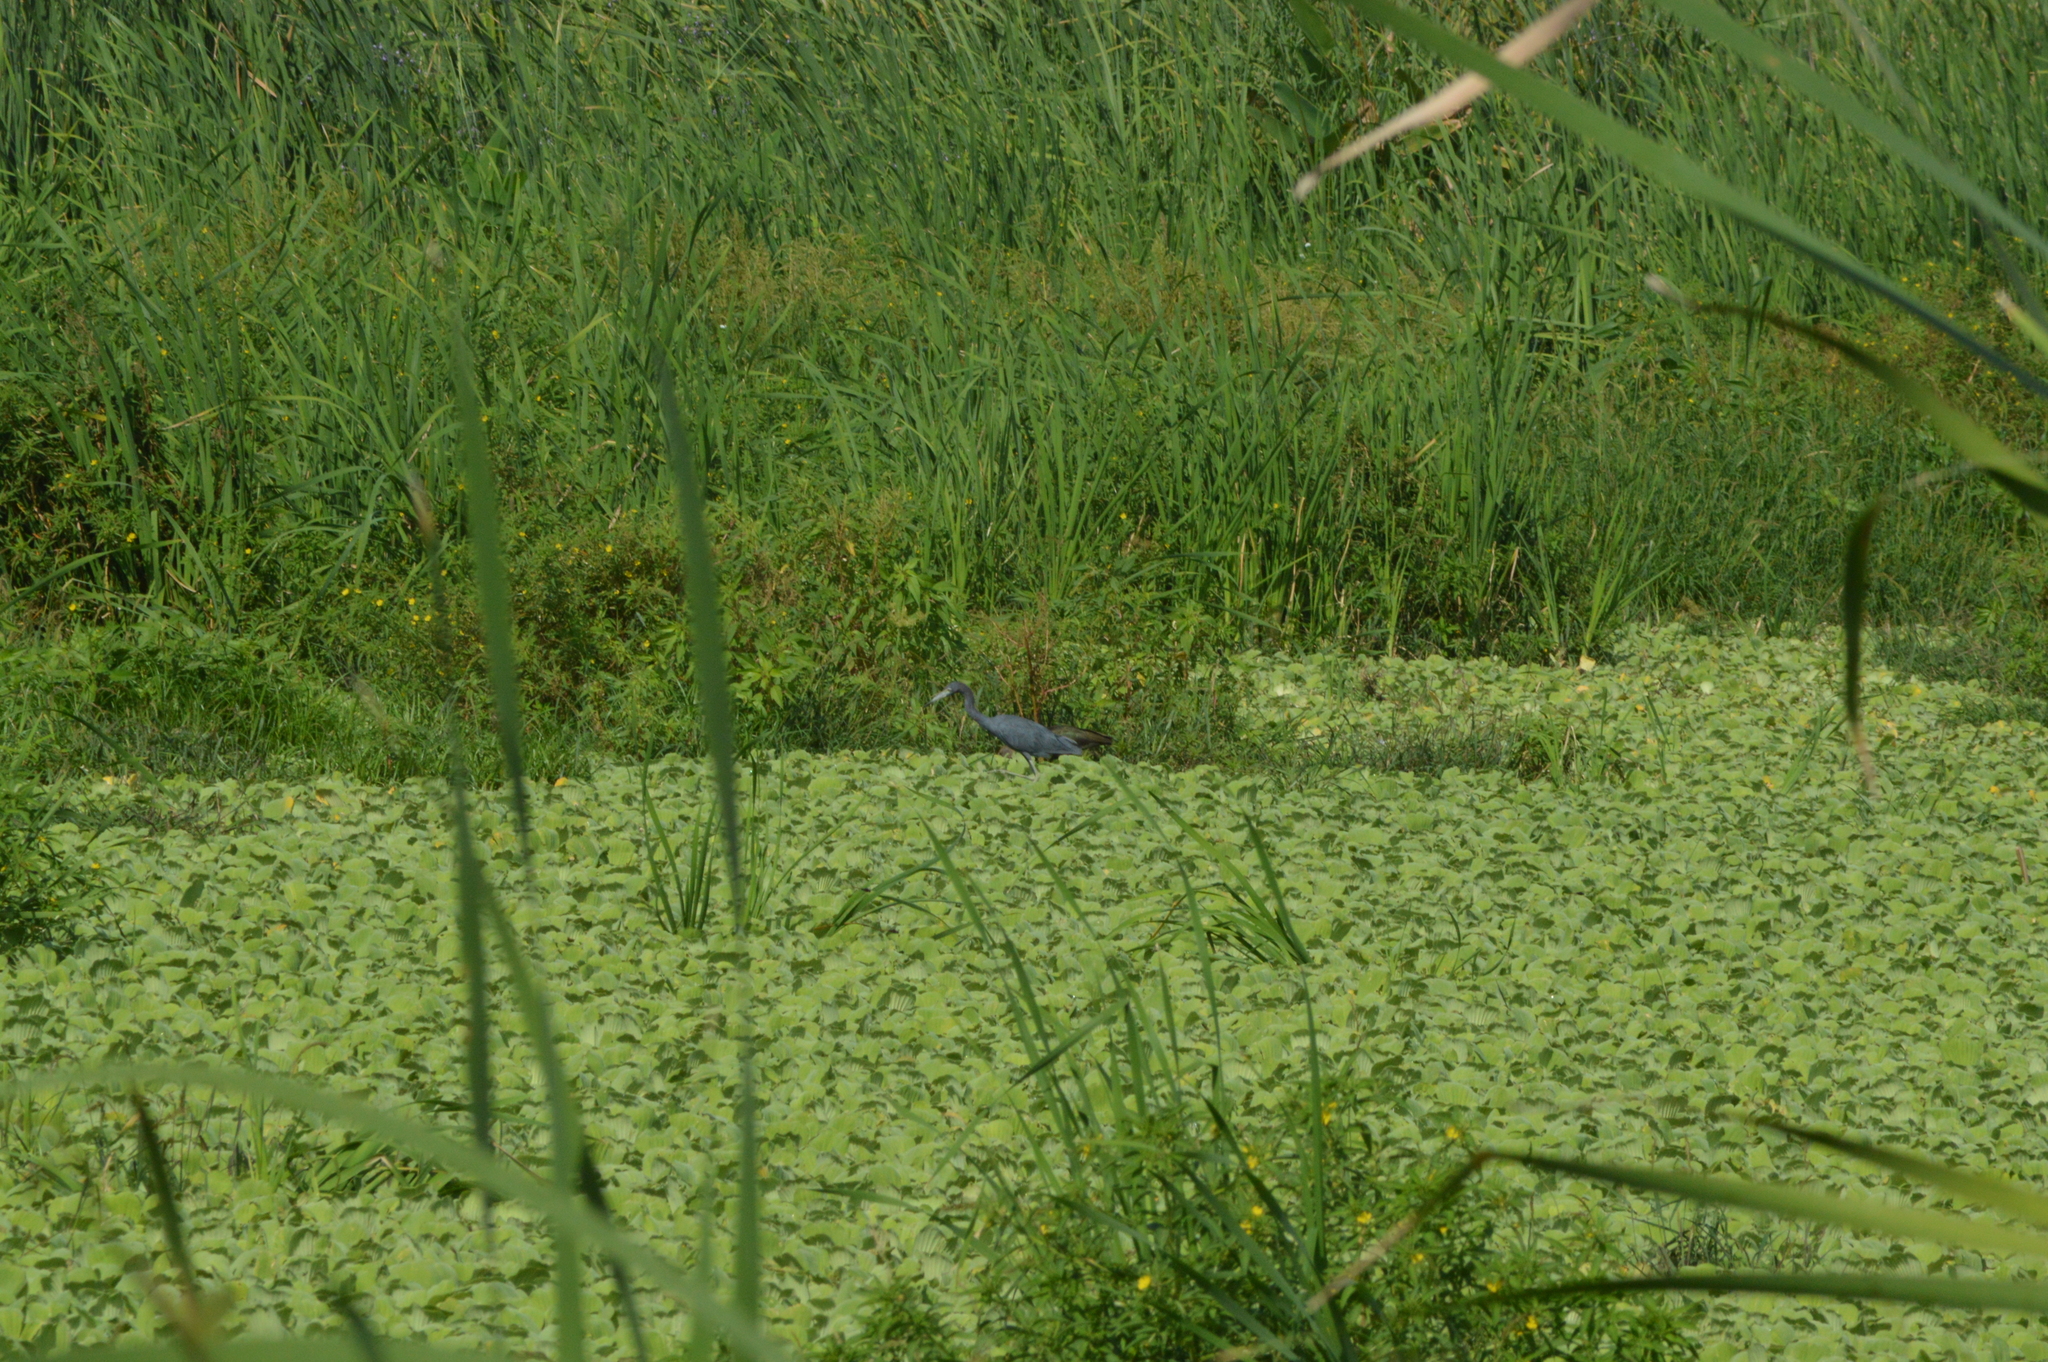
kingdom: Animalia
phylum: Chordata
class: Aves
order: Pelecaniformes
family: Ardeidae
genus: Egretta
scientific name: Egretta caerulea
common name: Little blue heron
